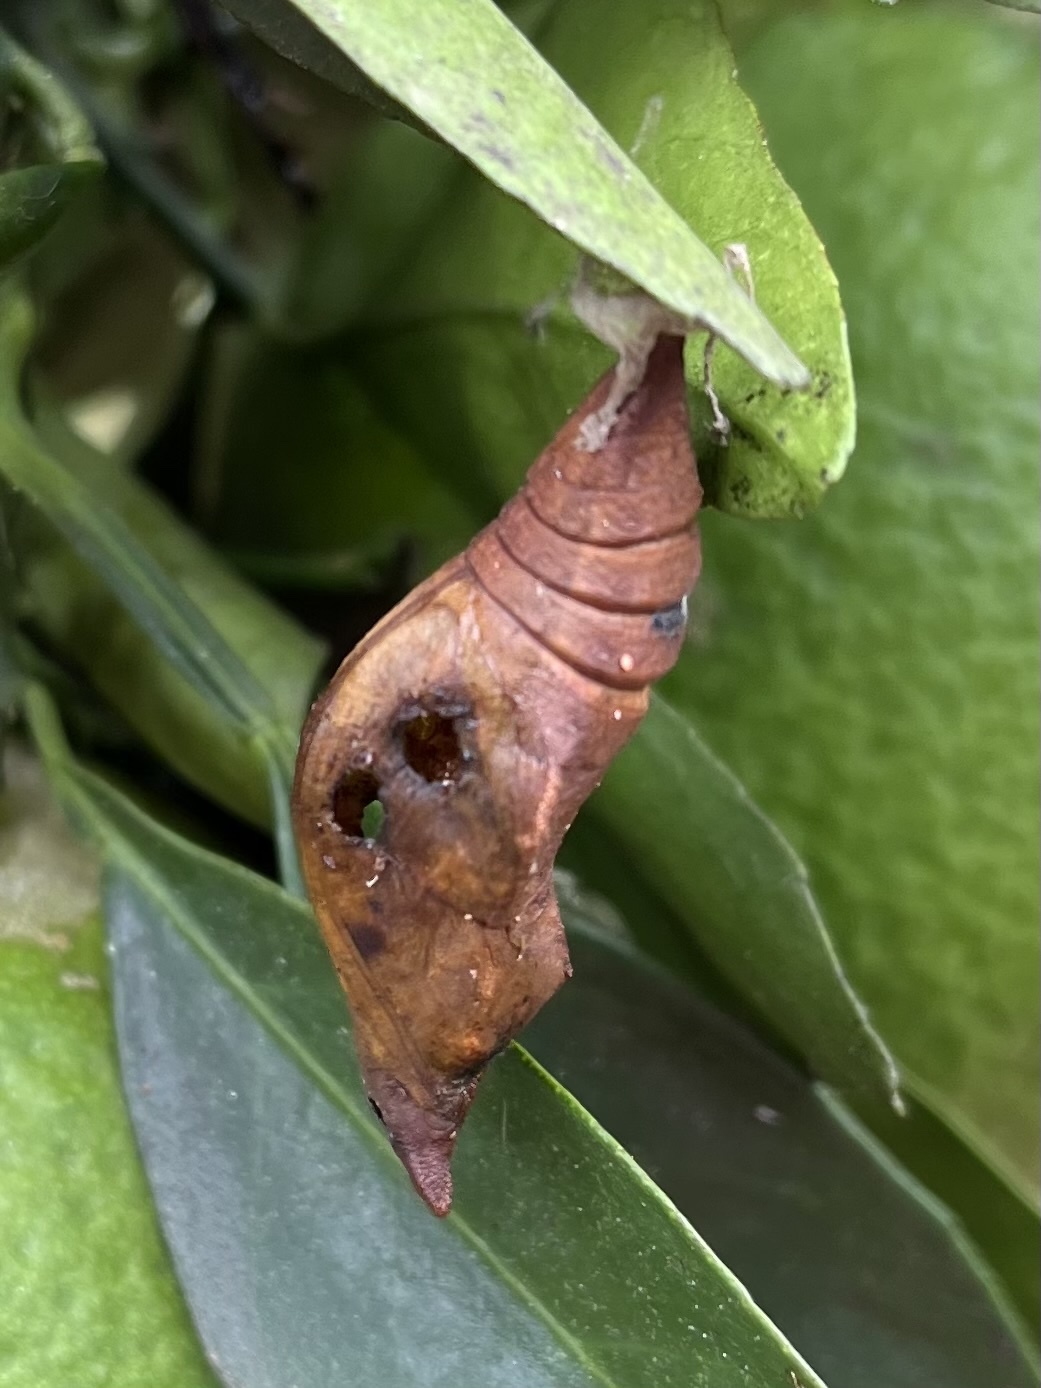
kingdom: Animalia
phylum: Arthropoda
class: Insecta
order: Lepidoptera
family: Papilionidae
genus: Papilio
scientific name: Papilio nireus
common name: Greenbanded swallowtail
